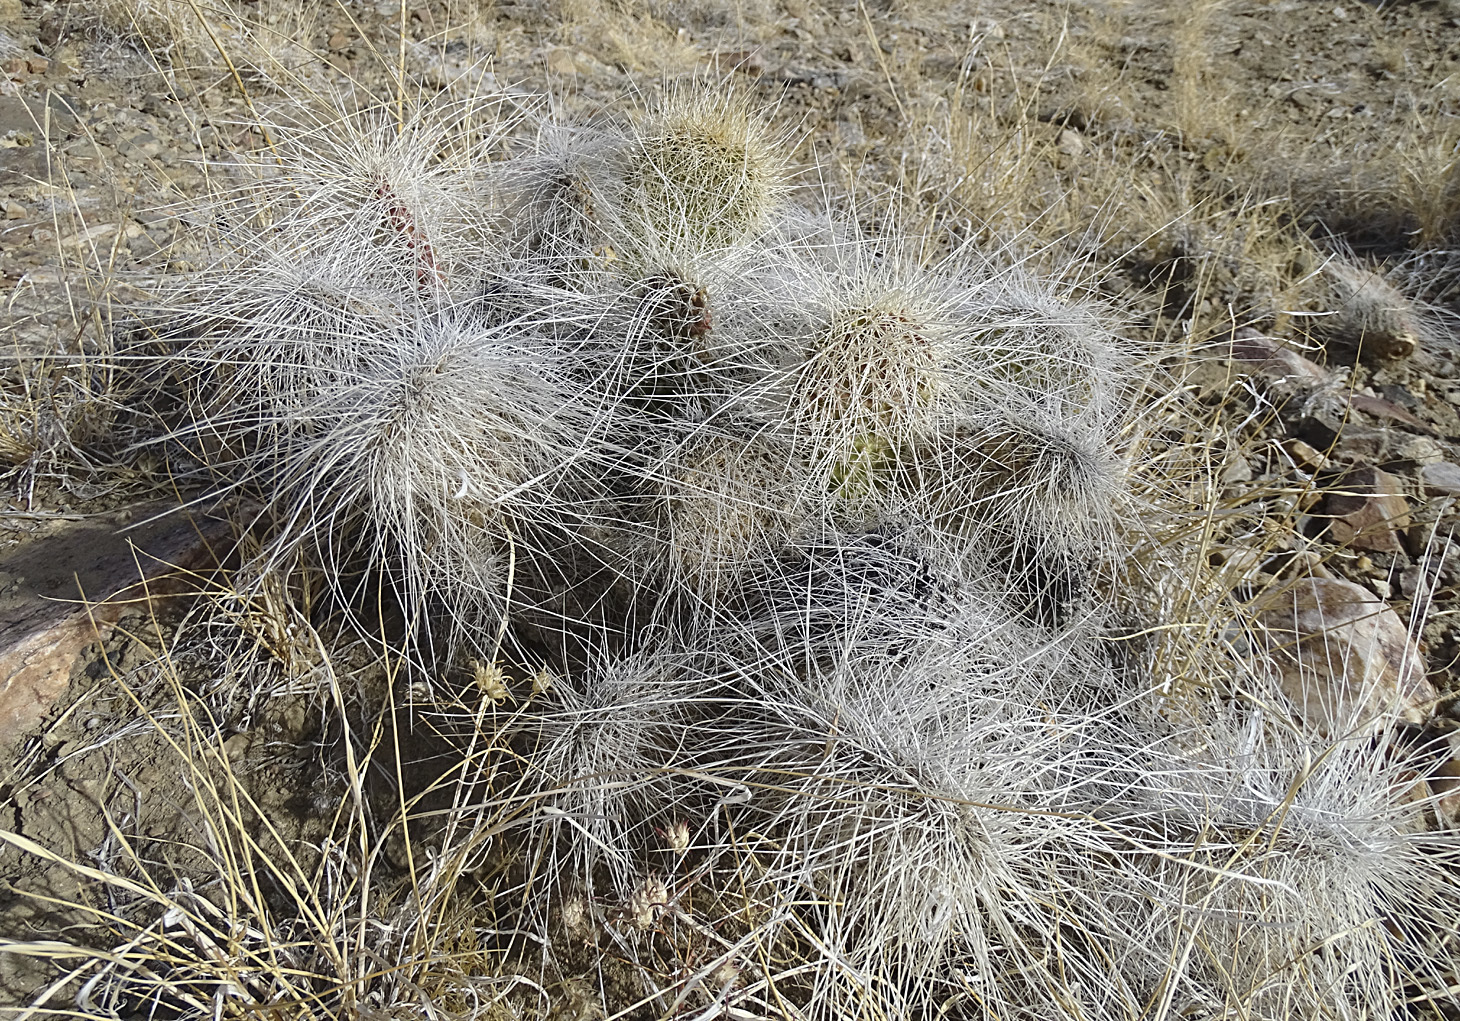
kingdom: Plantae
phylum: Tracheophyta
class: Magnoliopsida
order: Caryophyllales
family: Cactaceae
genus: Opuntia
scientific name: Opuntia polyacantha
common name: Plains prickly-pear
